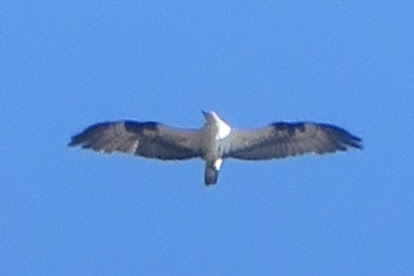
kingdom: Animalia
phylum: Chordata
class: Aves
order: Accipitriformes
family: Pandionidae
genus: Pandion
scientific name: Pandion haliaetus
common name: Osprey
